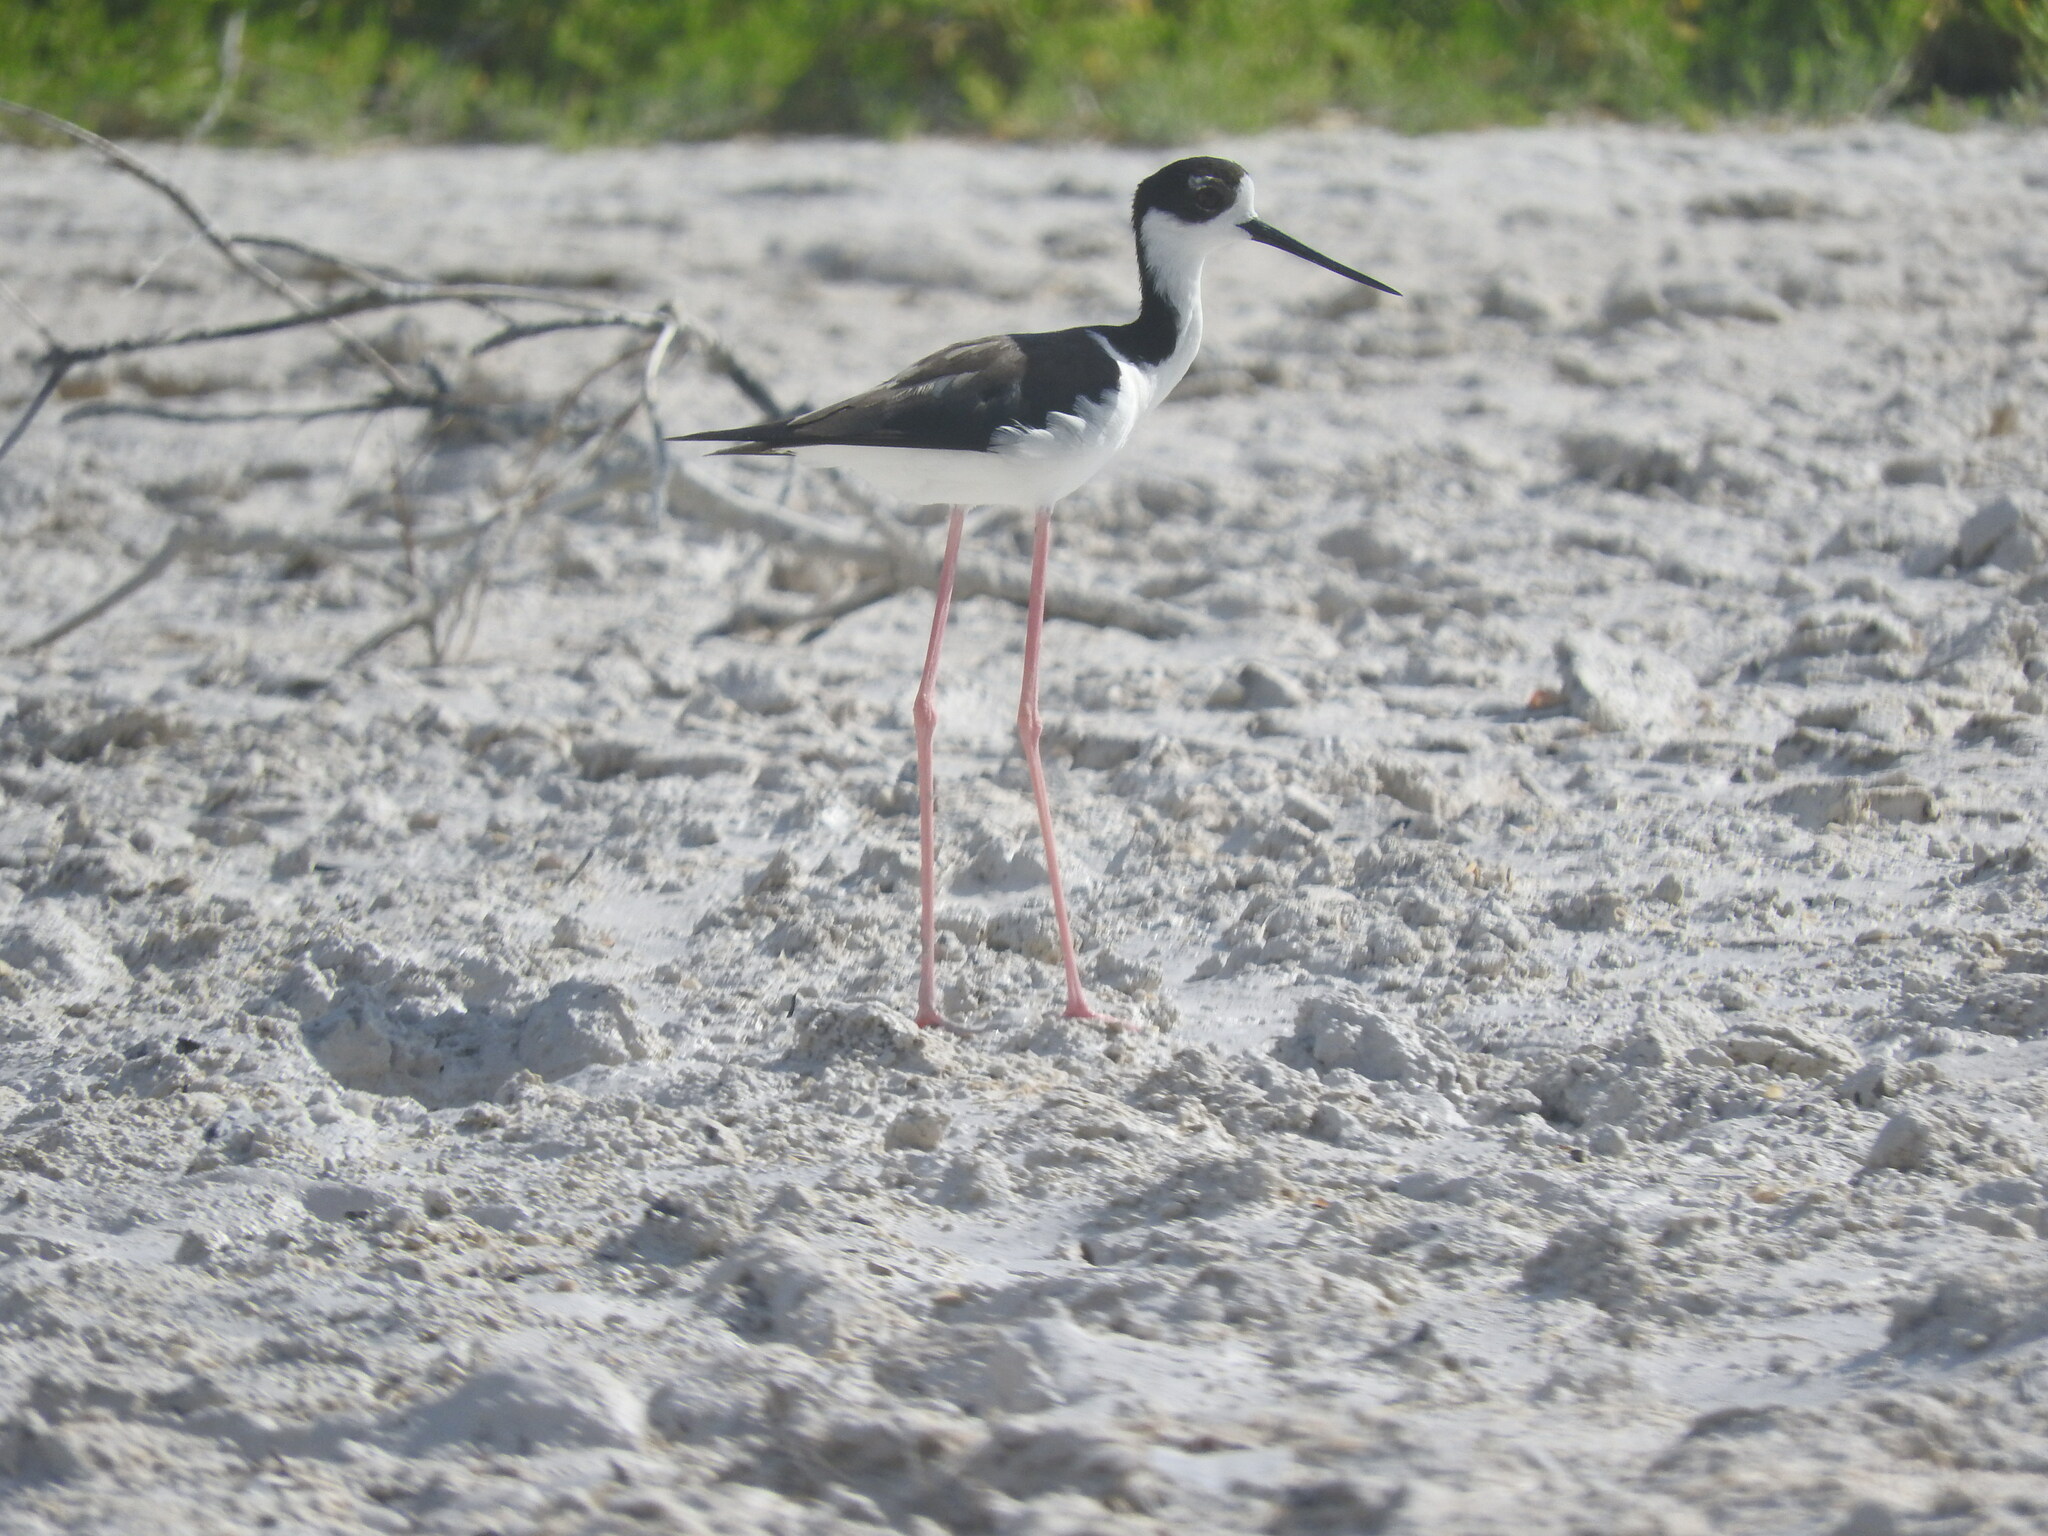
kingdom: Animalia
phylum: Chordata
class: Aves
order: Charadriiformes
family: Recurvirostridae
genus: Himantopus
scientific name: Himantopus mexicanus
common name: Black-necked stilt
